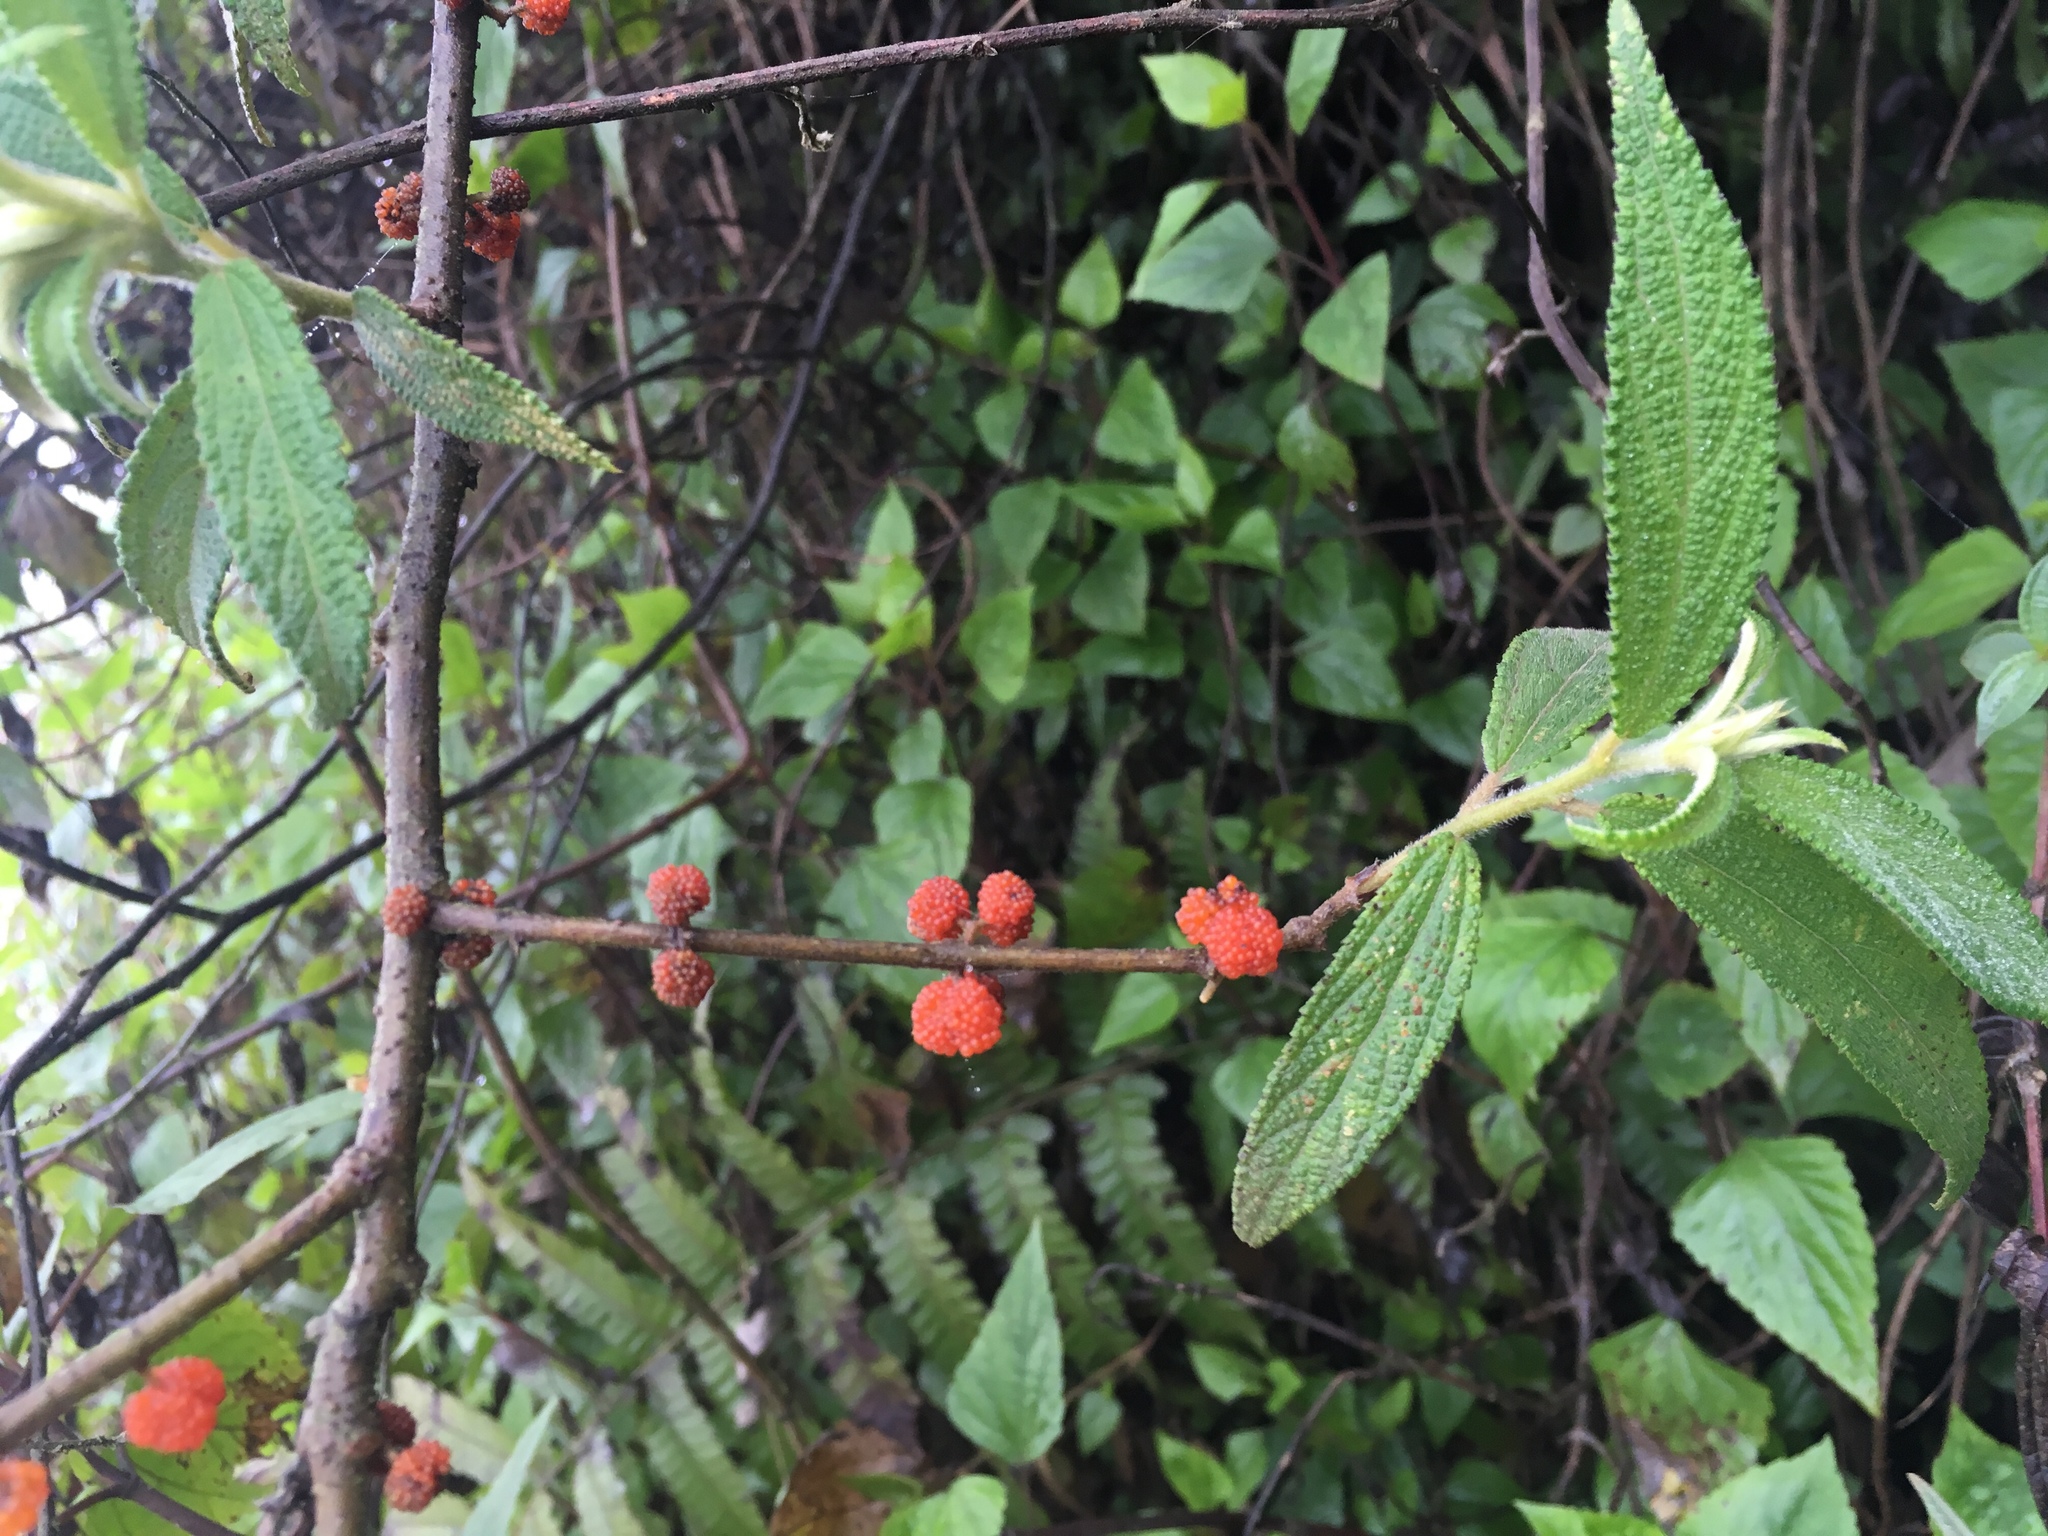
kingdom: Plantae
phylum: Tracheophyta
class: Magnoliopsida
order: Rosales
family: Urticaceae
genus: Debregeasia
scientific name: Debregeasia longifolia
